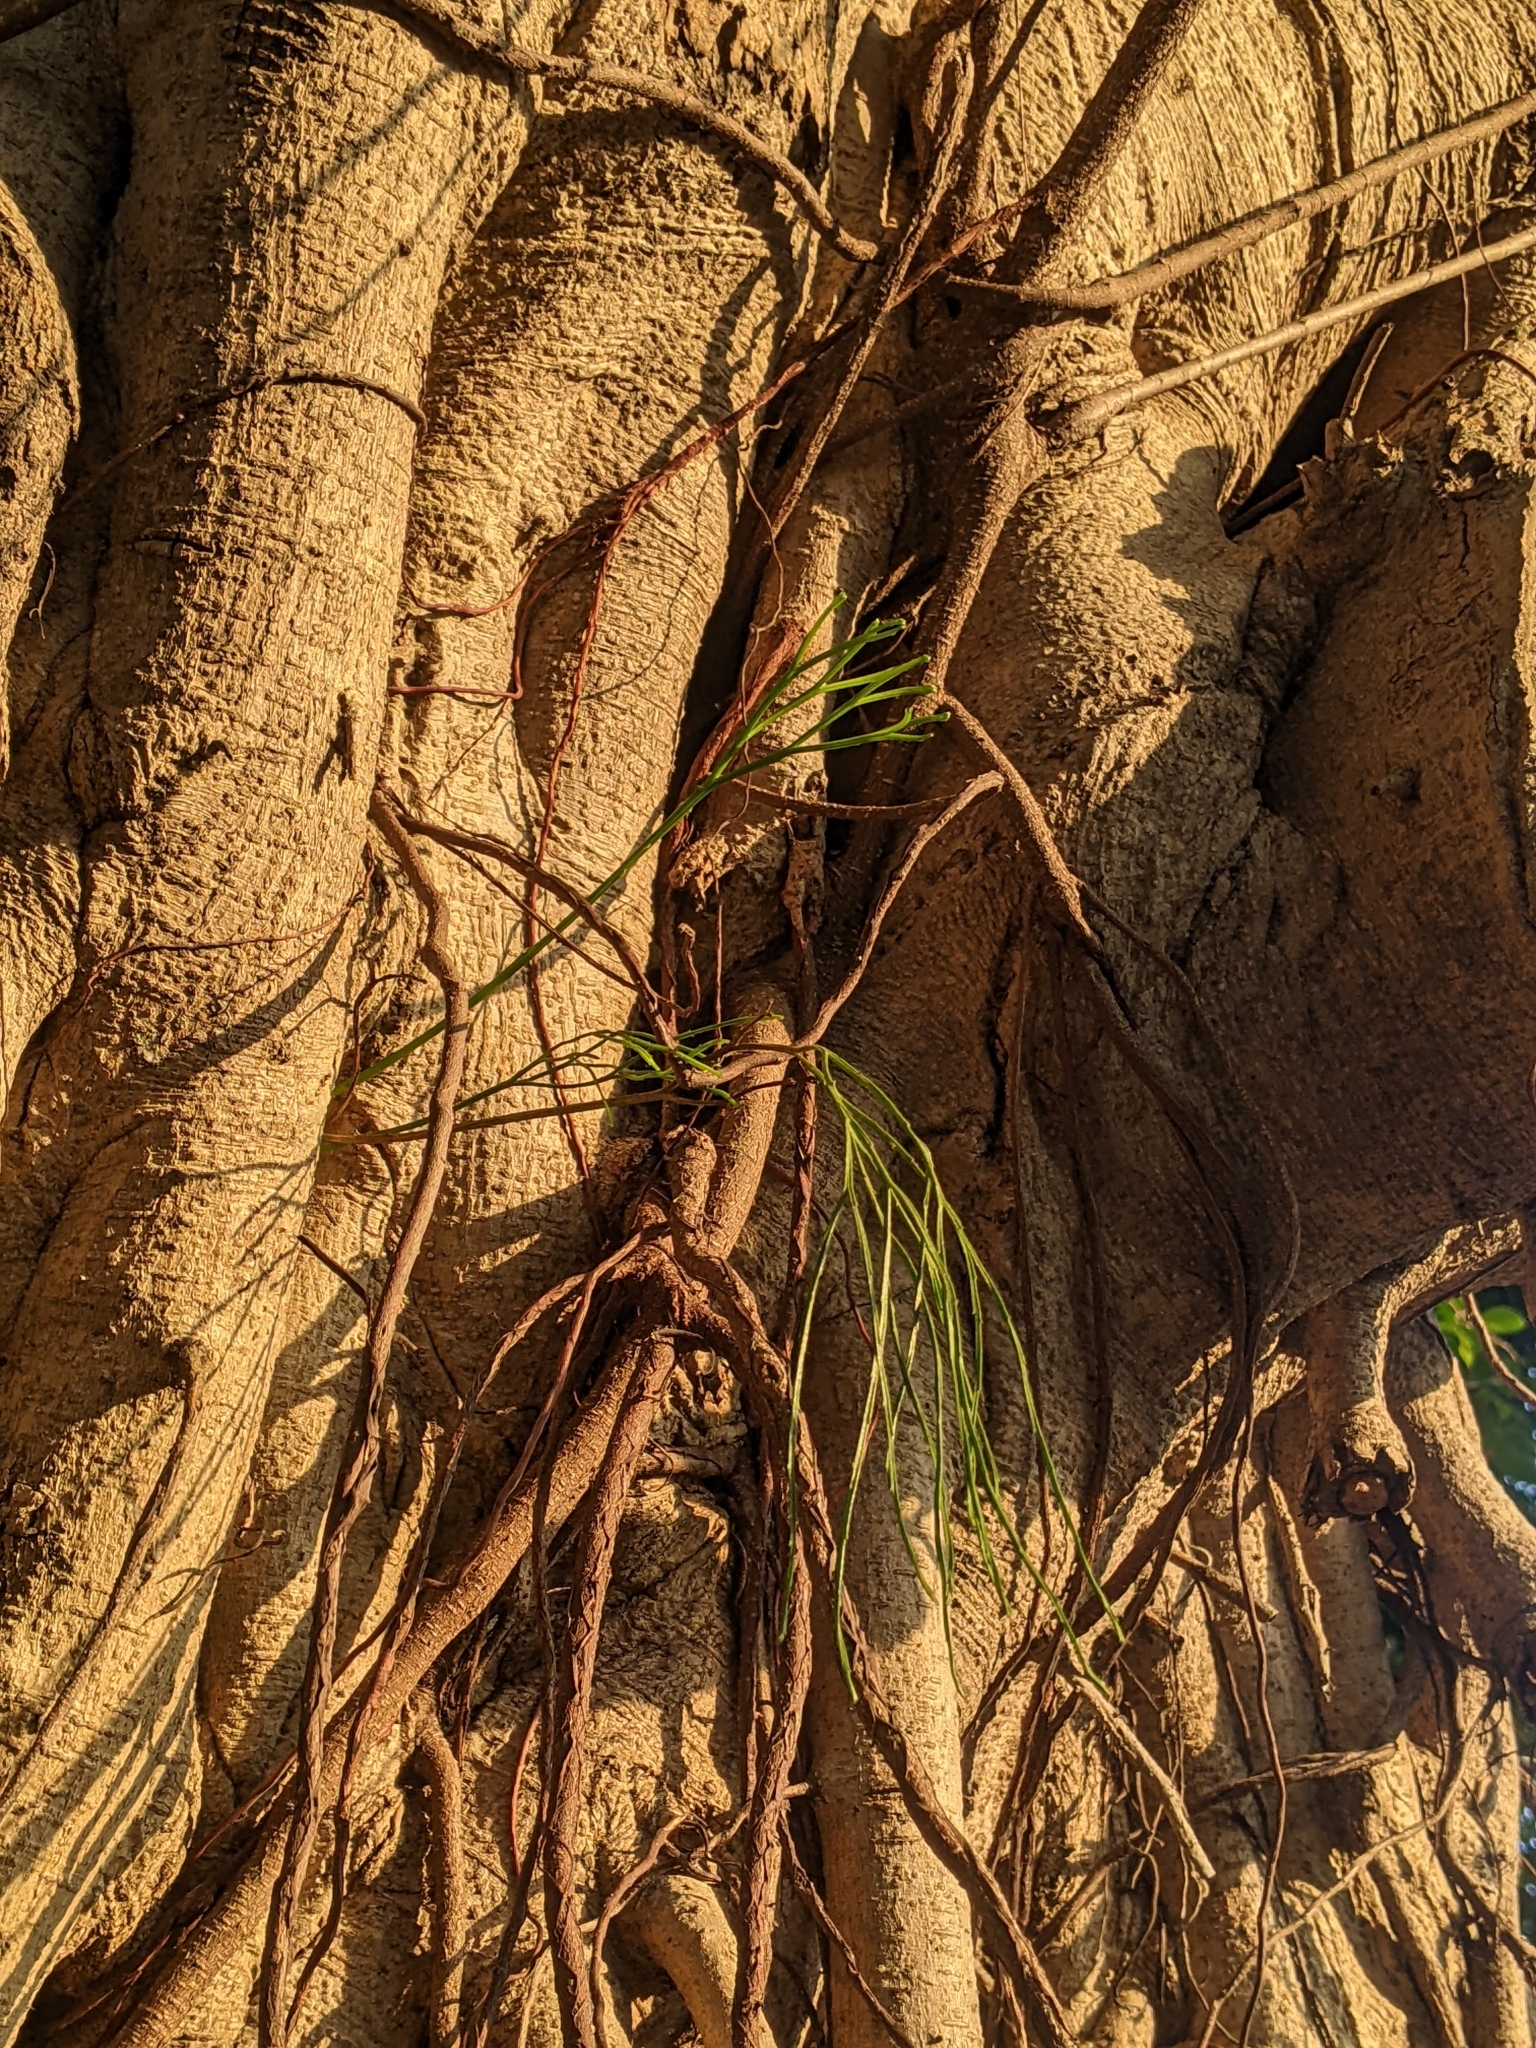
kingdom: Plantae
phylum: Tracheophyta
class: Polypodiopsida
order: Psilotales
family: Psilotaceae
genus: Psilotum
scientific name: Psilotum nudum
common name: Skeleton fork fern
